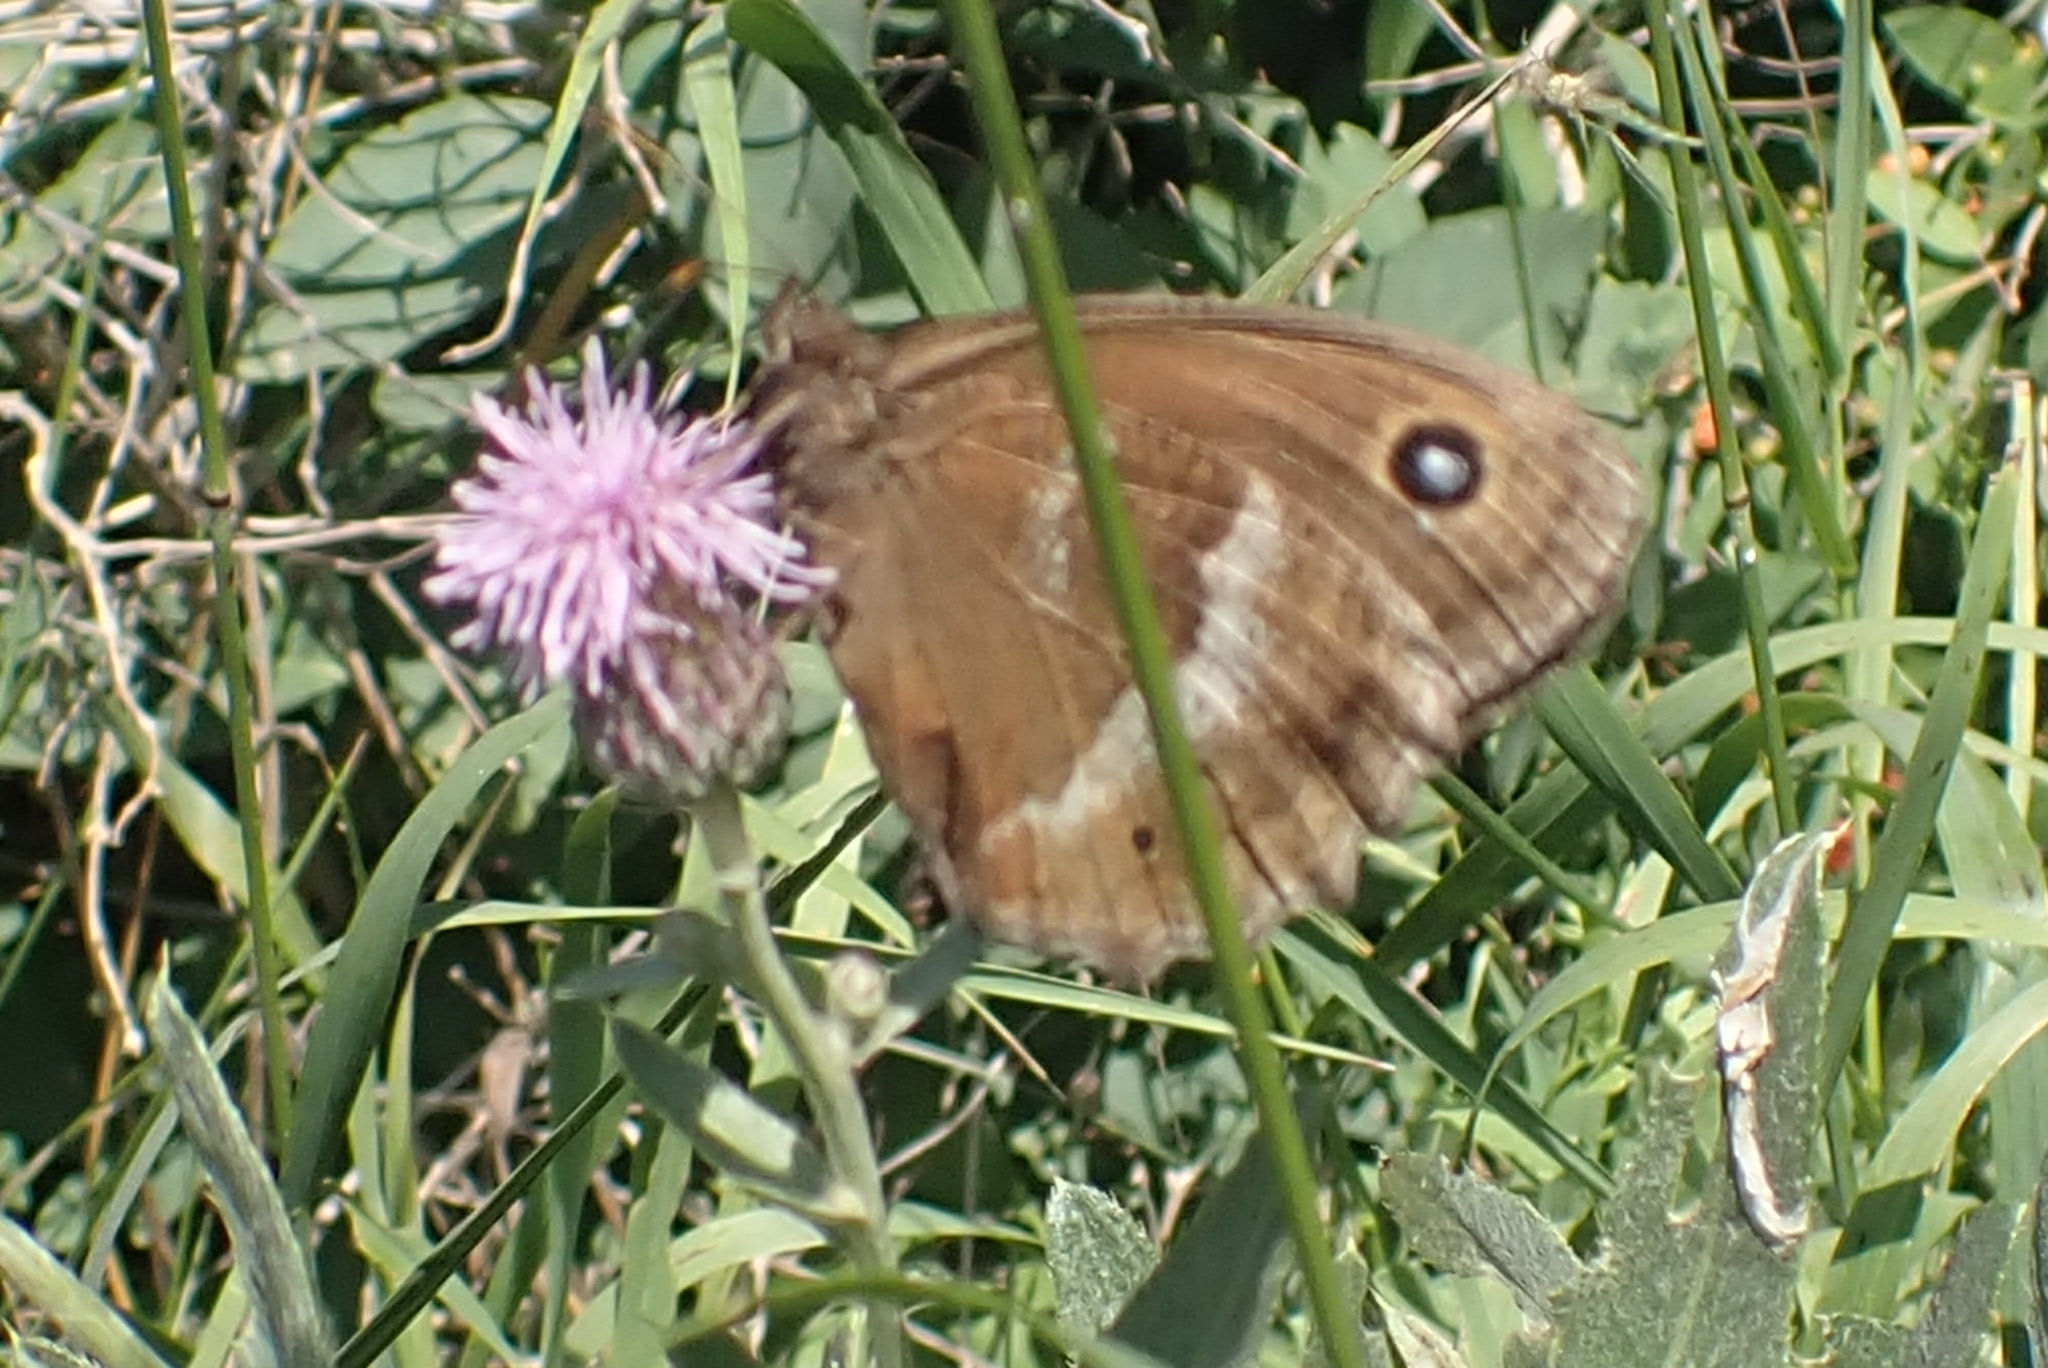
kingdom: Animalia
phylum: Arthropoda
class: Insecta
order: Lepidoptera
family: Nymphalidae
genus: Minois
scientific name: Minois dryas
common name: Dryad
